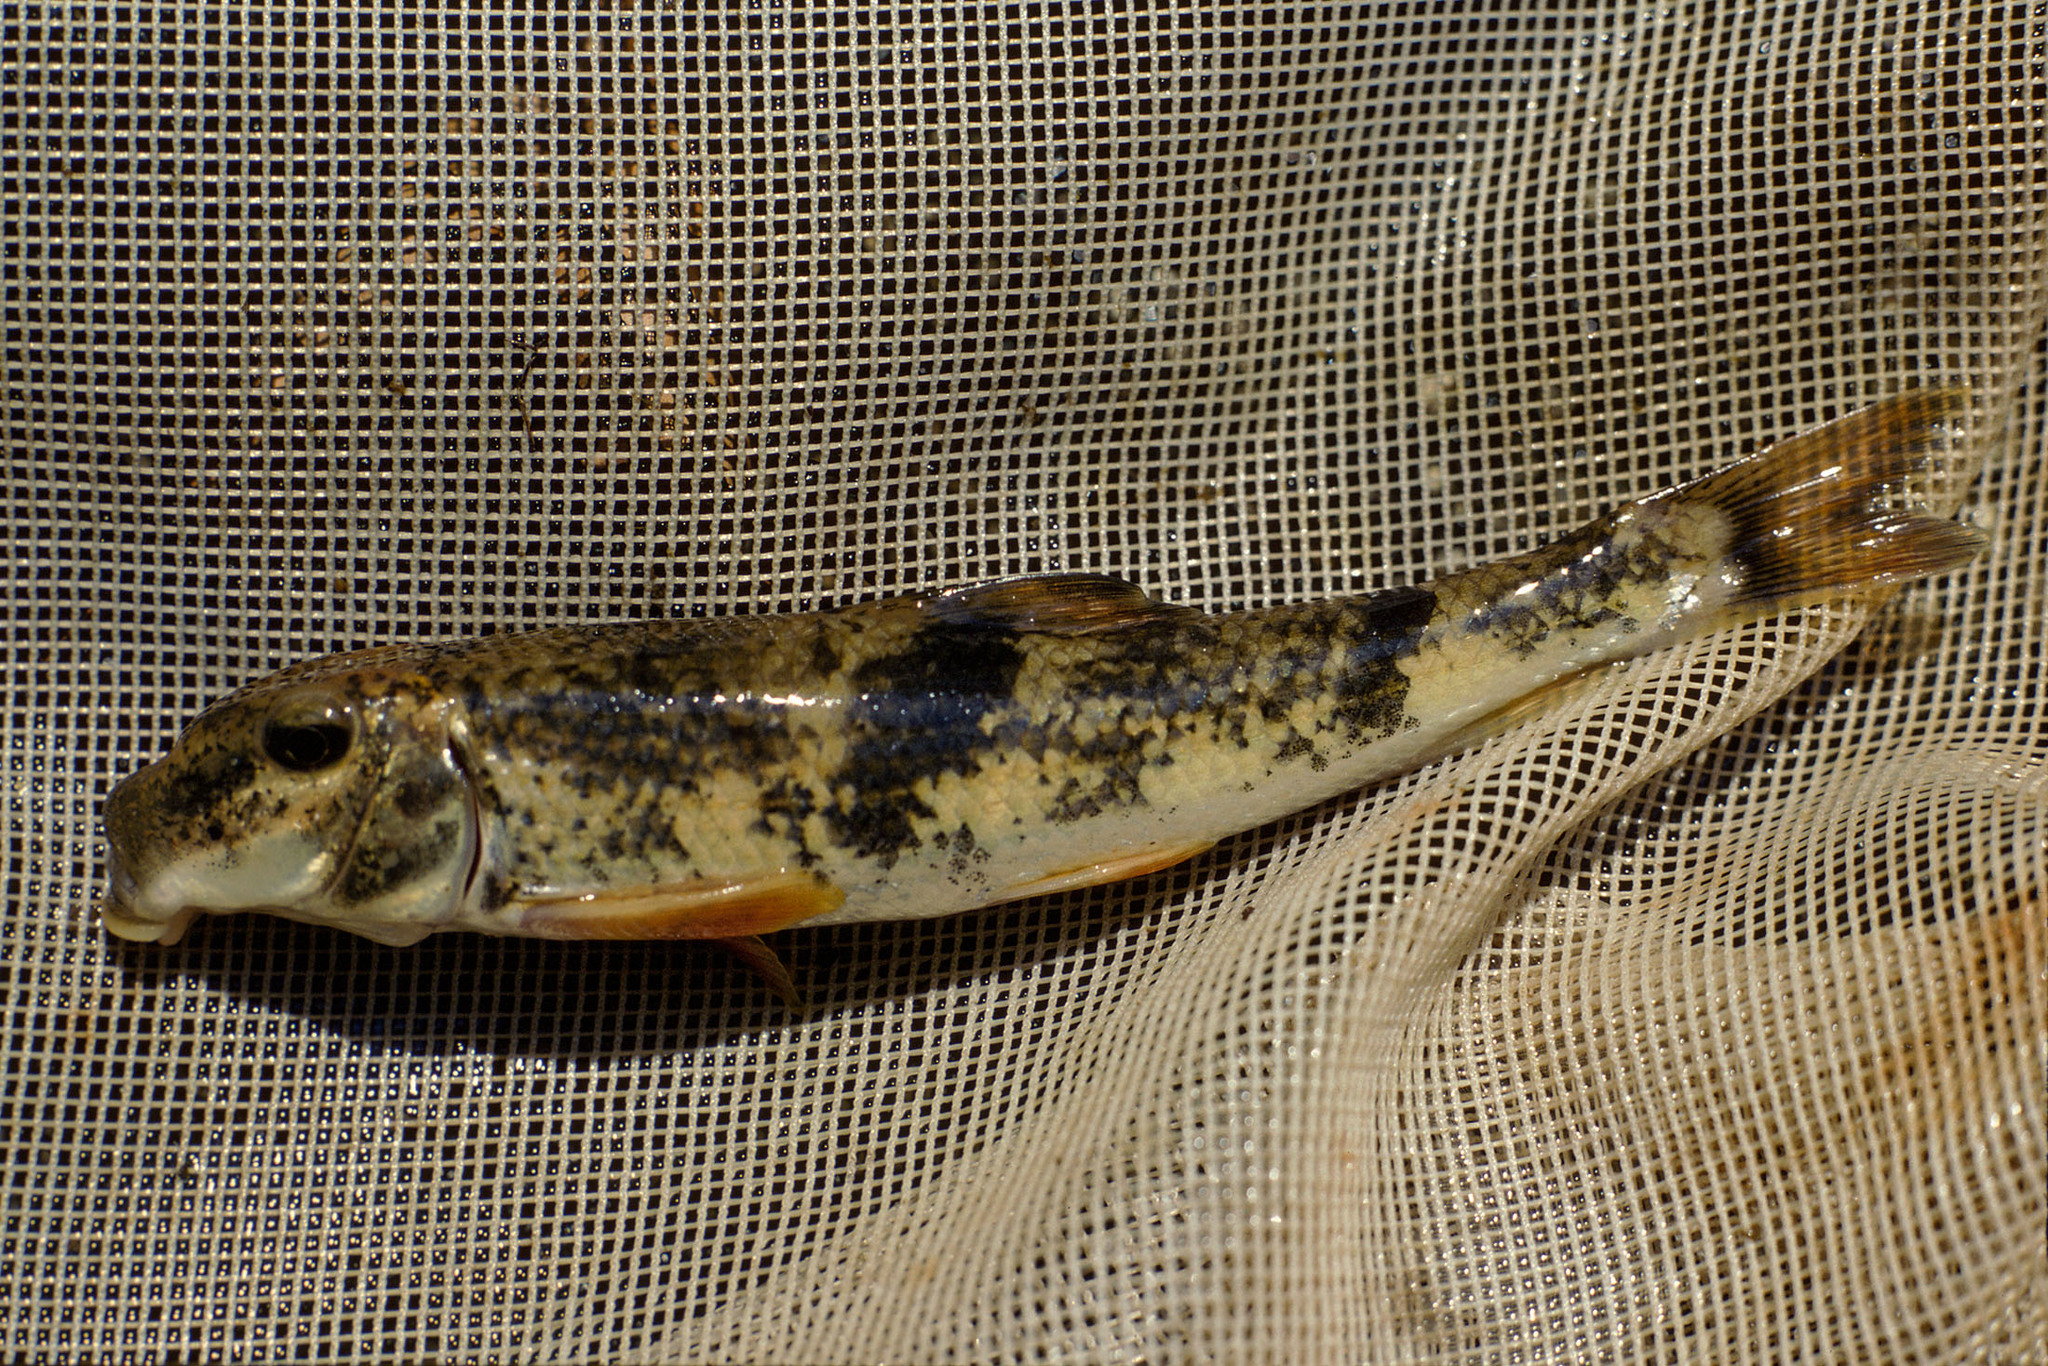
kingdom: Animalia
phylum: Chordata
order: Cypriniformes
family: Catostomidae
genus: Hypentelium
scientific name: Hypentelium nigricans
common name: Northern hog sucker
